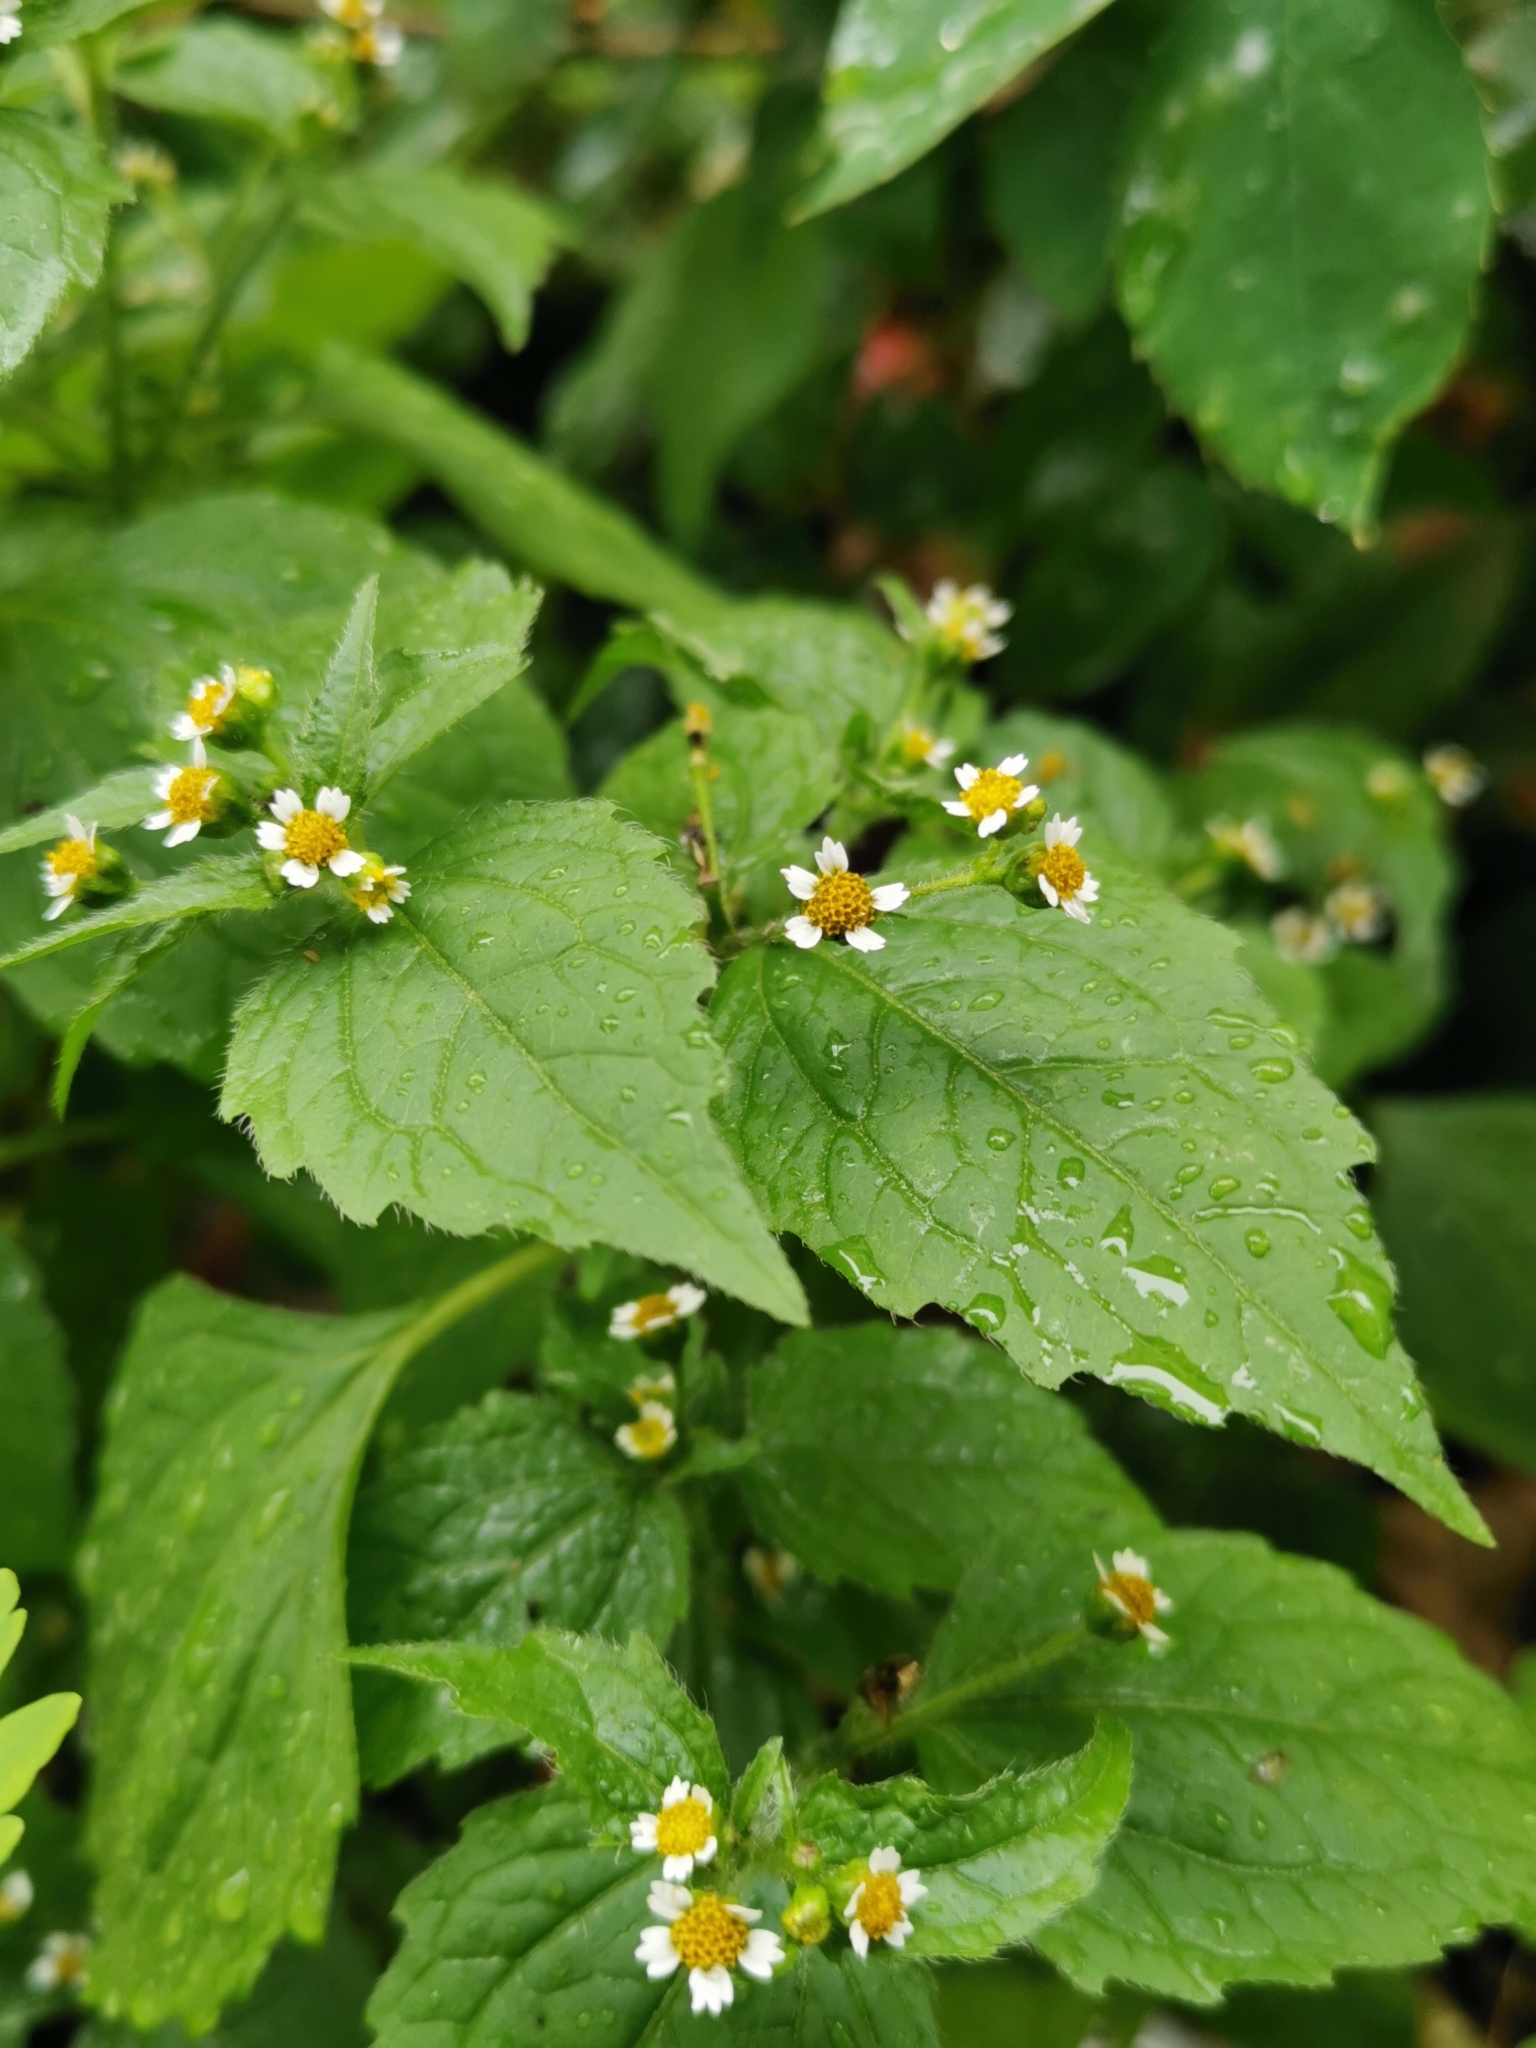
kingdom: Plantae
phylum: Tracheophyta
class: Magnoliopsida
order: Asterales
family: Asteraceae
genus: Galinsoga
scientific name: Galinsoga quadriradiata
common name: Shaggy soldier
